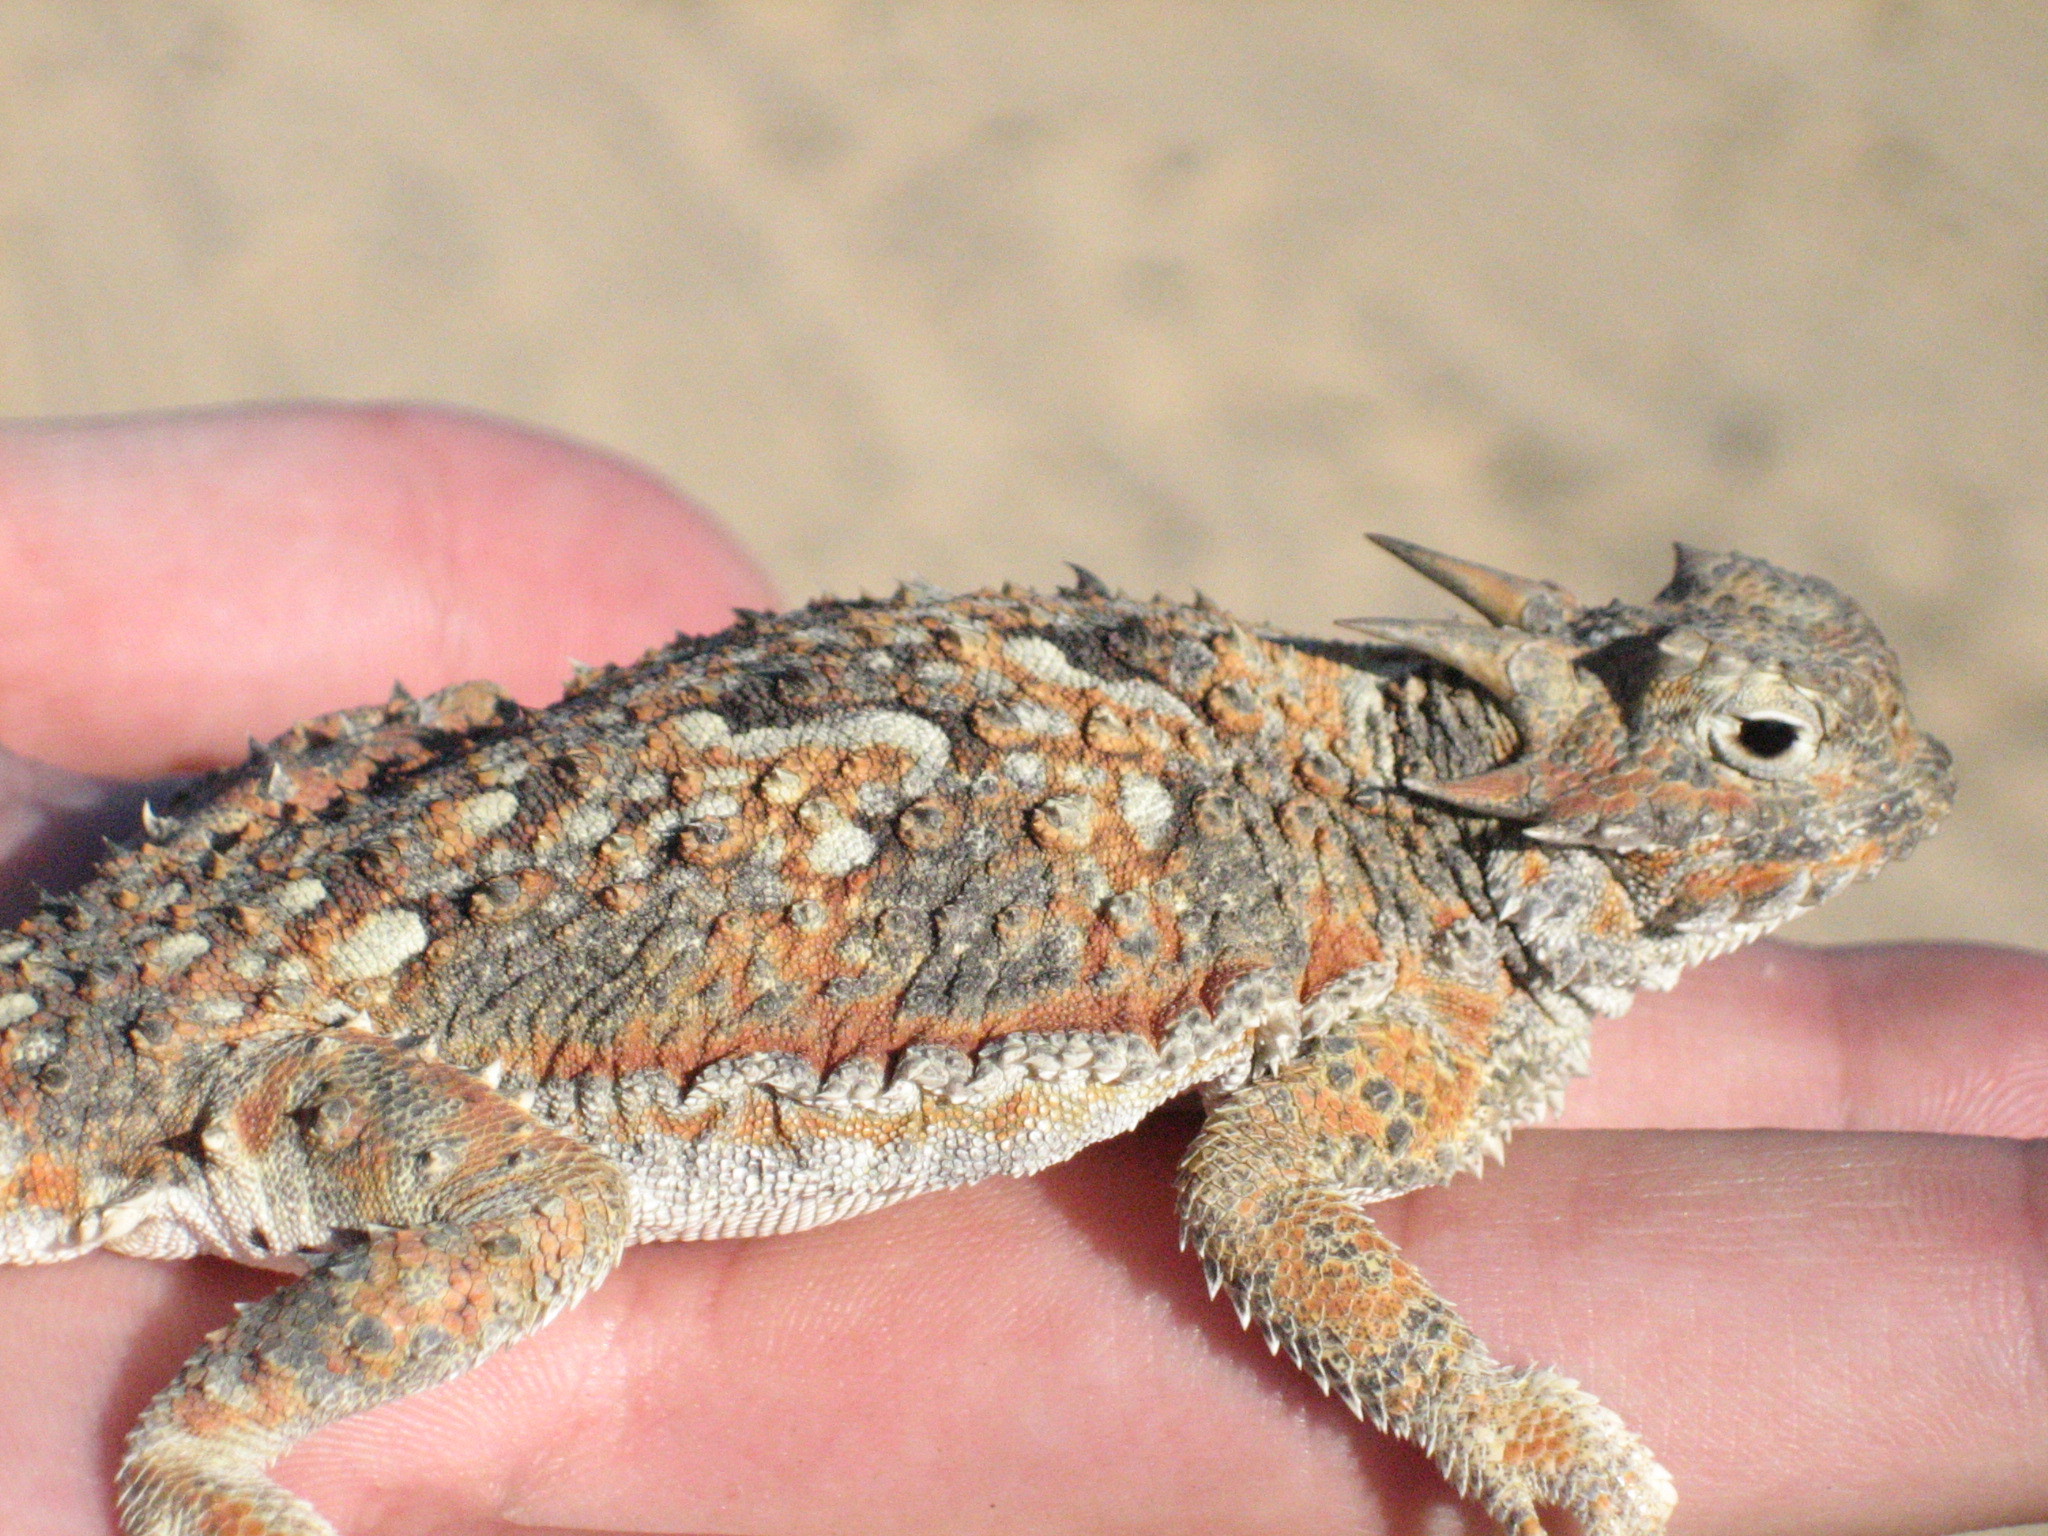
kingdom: Animalia
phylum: Chordata
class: Squamata
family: Phrynosomatidae
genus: Phrynosoma
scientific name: Phrynosoma platyrhinos
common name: Desert horned lizard
